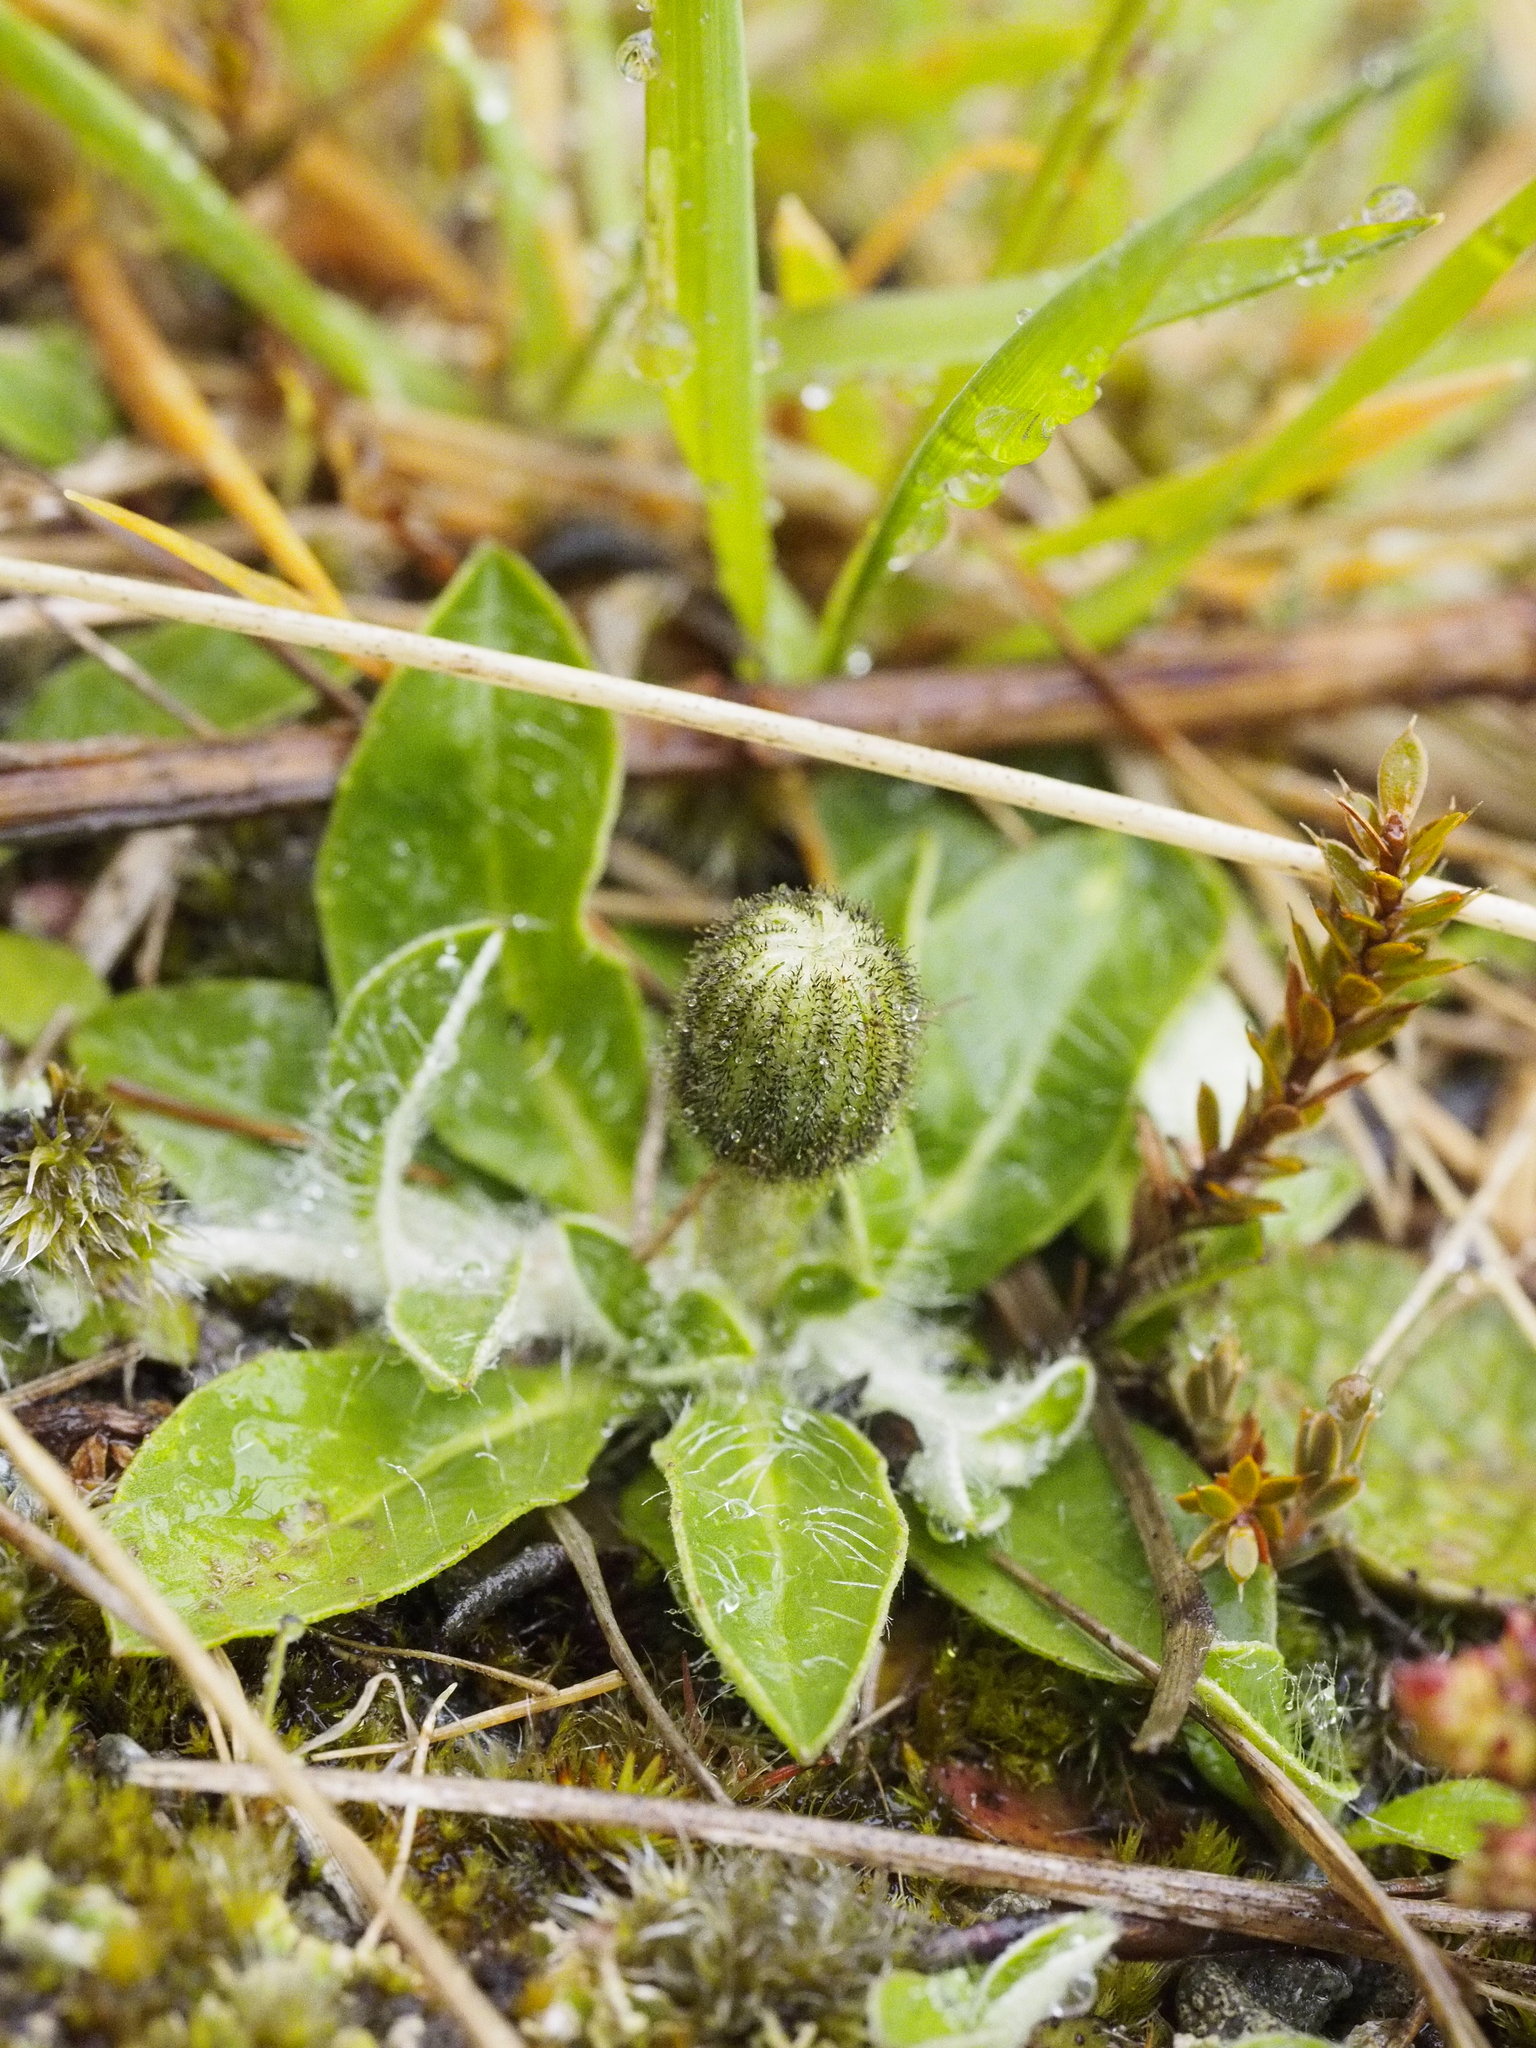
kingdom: Plantae
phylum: Tracheophyta
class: Magnoliopsida
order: Asterales
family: Asteraceae
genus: Pilosella
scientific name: Pilosella officinarum
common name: Mouse-ear hawkweed
